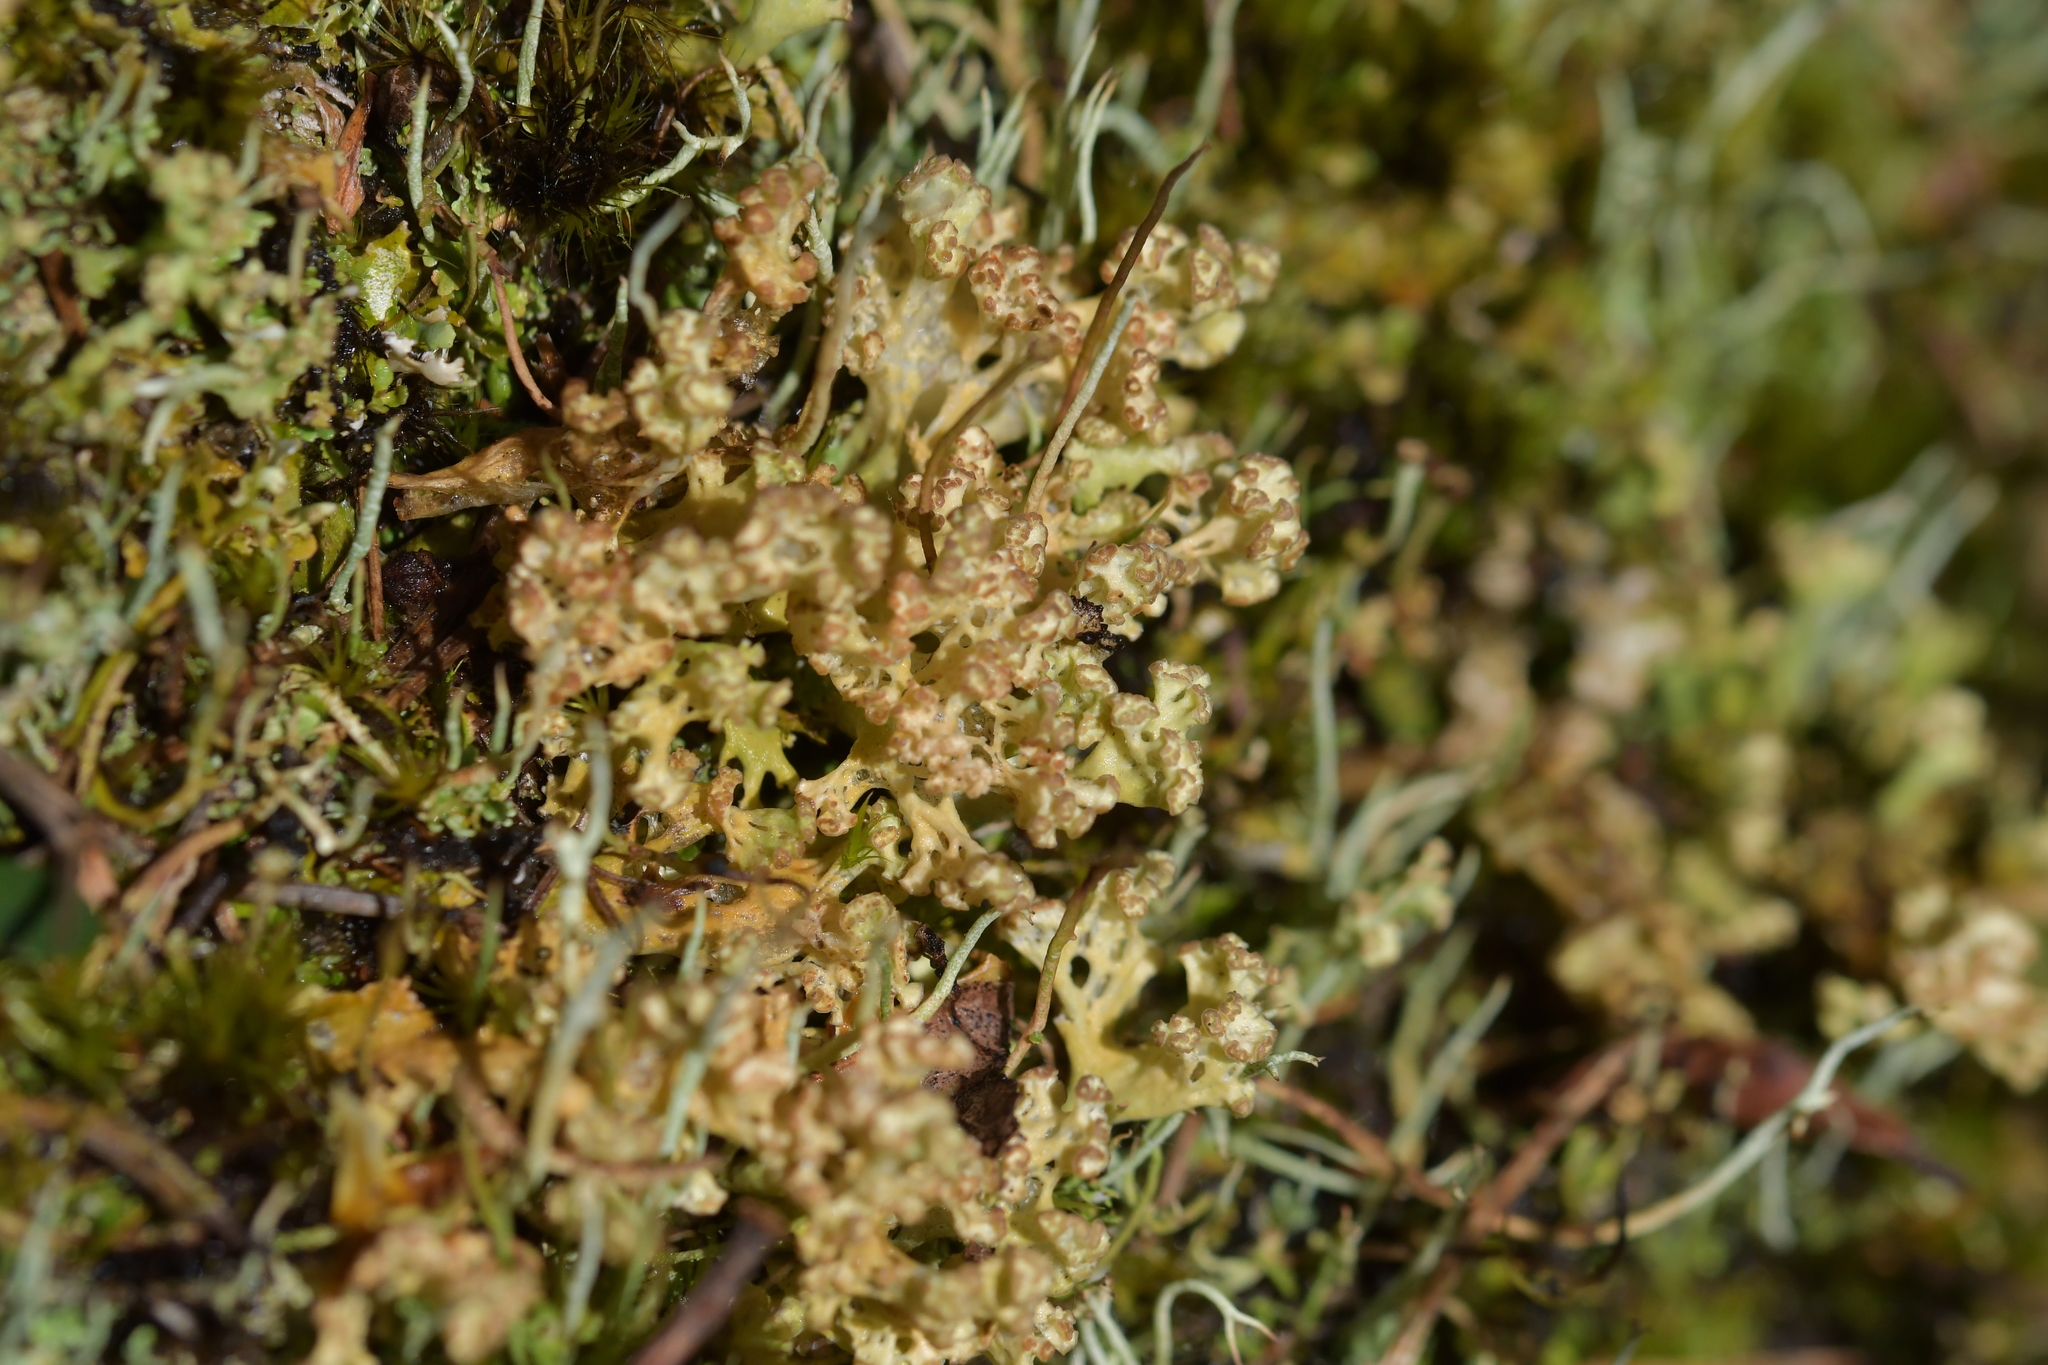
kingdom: Fungi
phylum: Ascomycota
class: Lecanoromycetes
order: Lecanorales
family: Cladoniaceae
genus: Notocladonia
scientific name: Notocladonia cochleata
